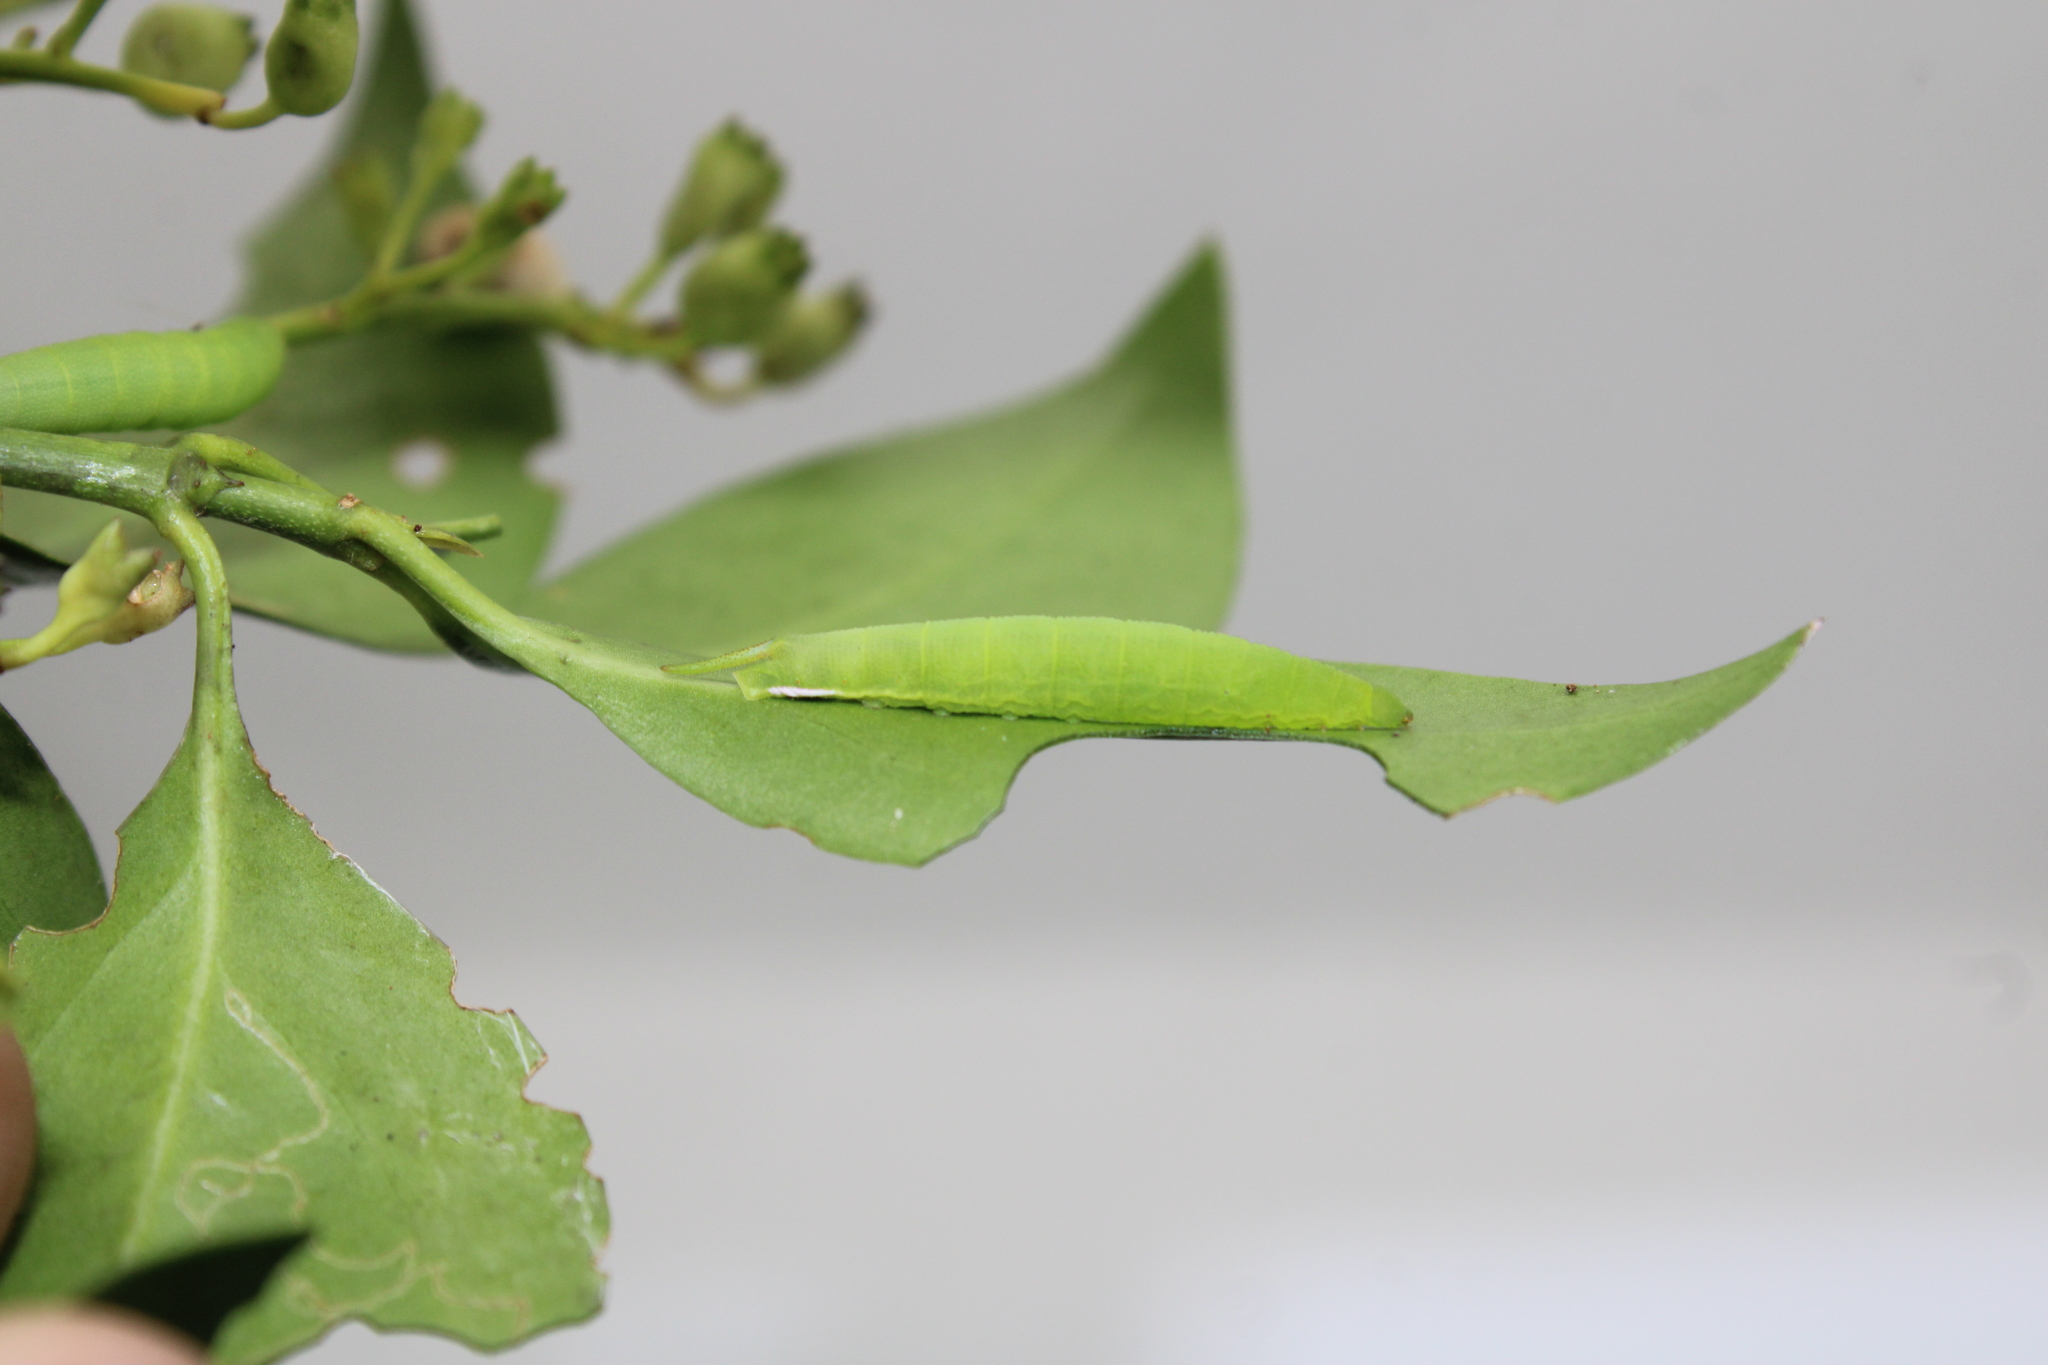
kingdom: Animalia
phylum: Arthropoda
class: Insecta
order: Lepidoptera
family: Sphingidae
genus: Cautethia
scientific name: Cautethia grotei
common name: Grote's sphinx
